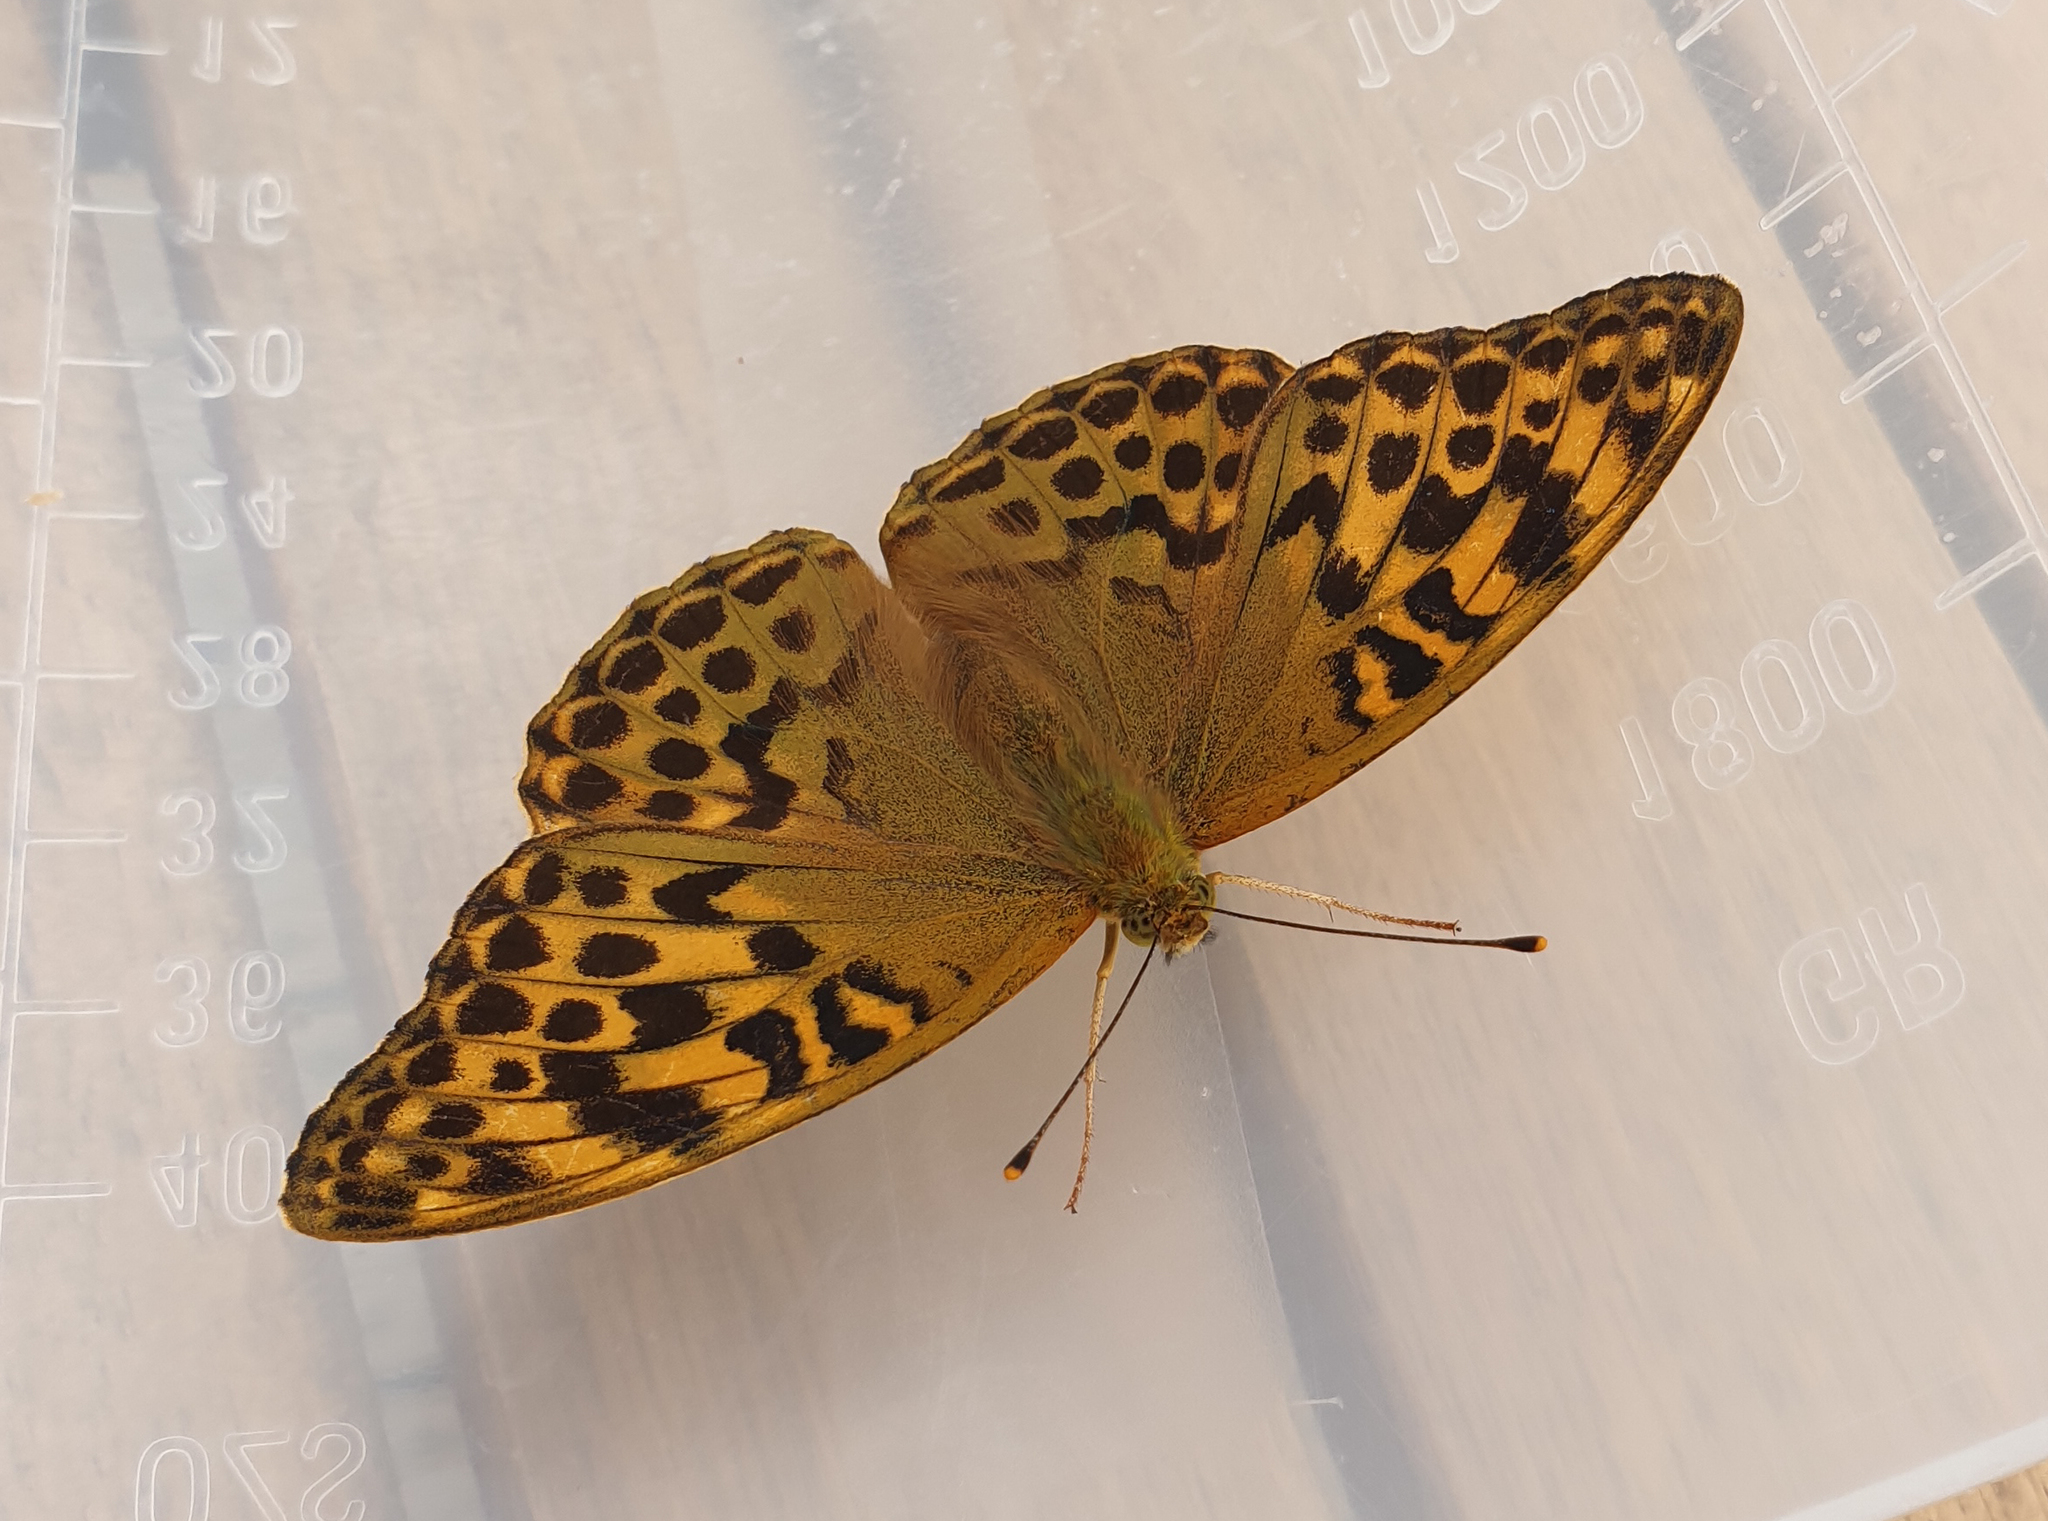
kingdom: Animalia
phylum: Arthropoda
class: Insecta
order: Lepidoptera
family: Nymphalidae
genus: Argynnis
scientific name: Argynnis paphia
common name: Silver-washed fritillary
